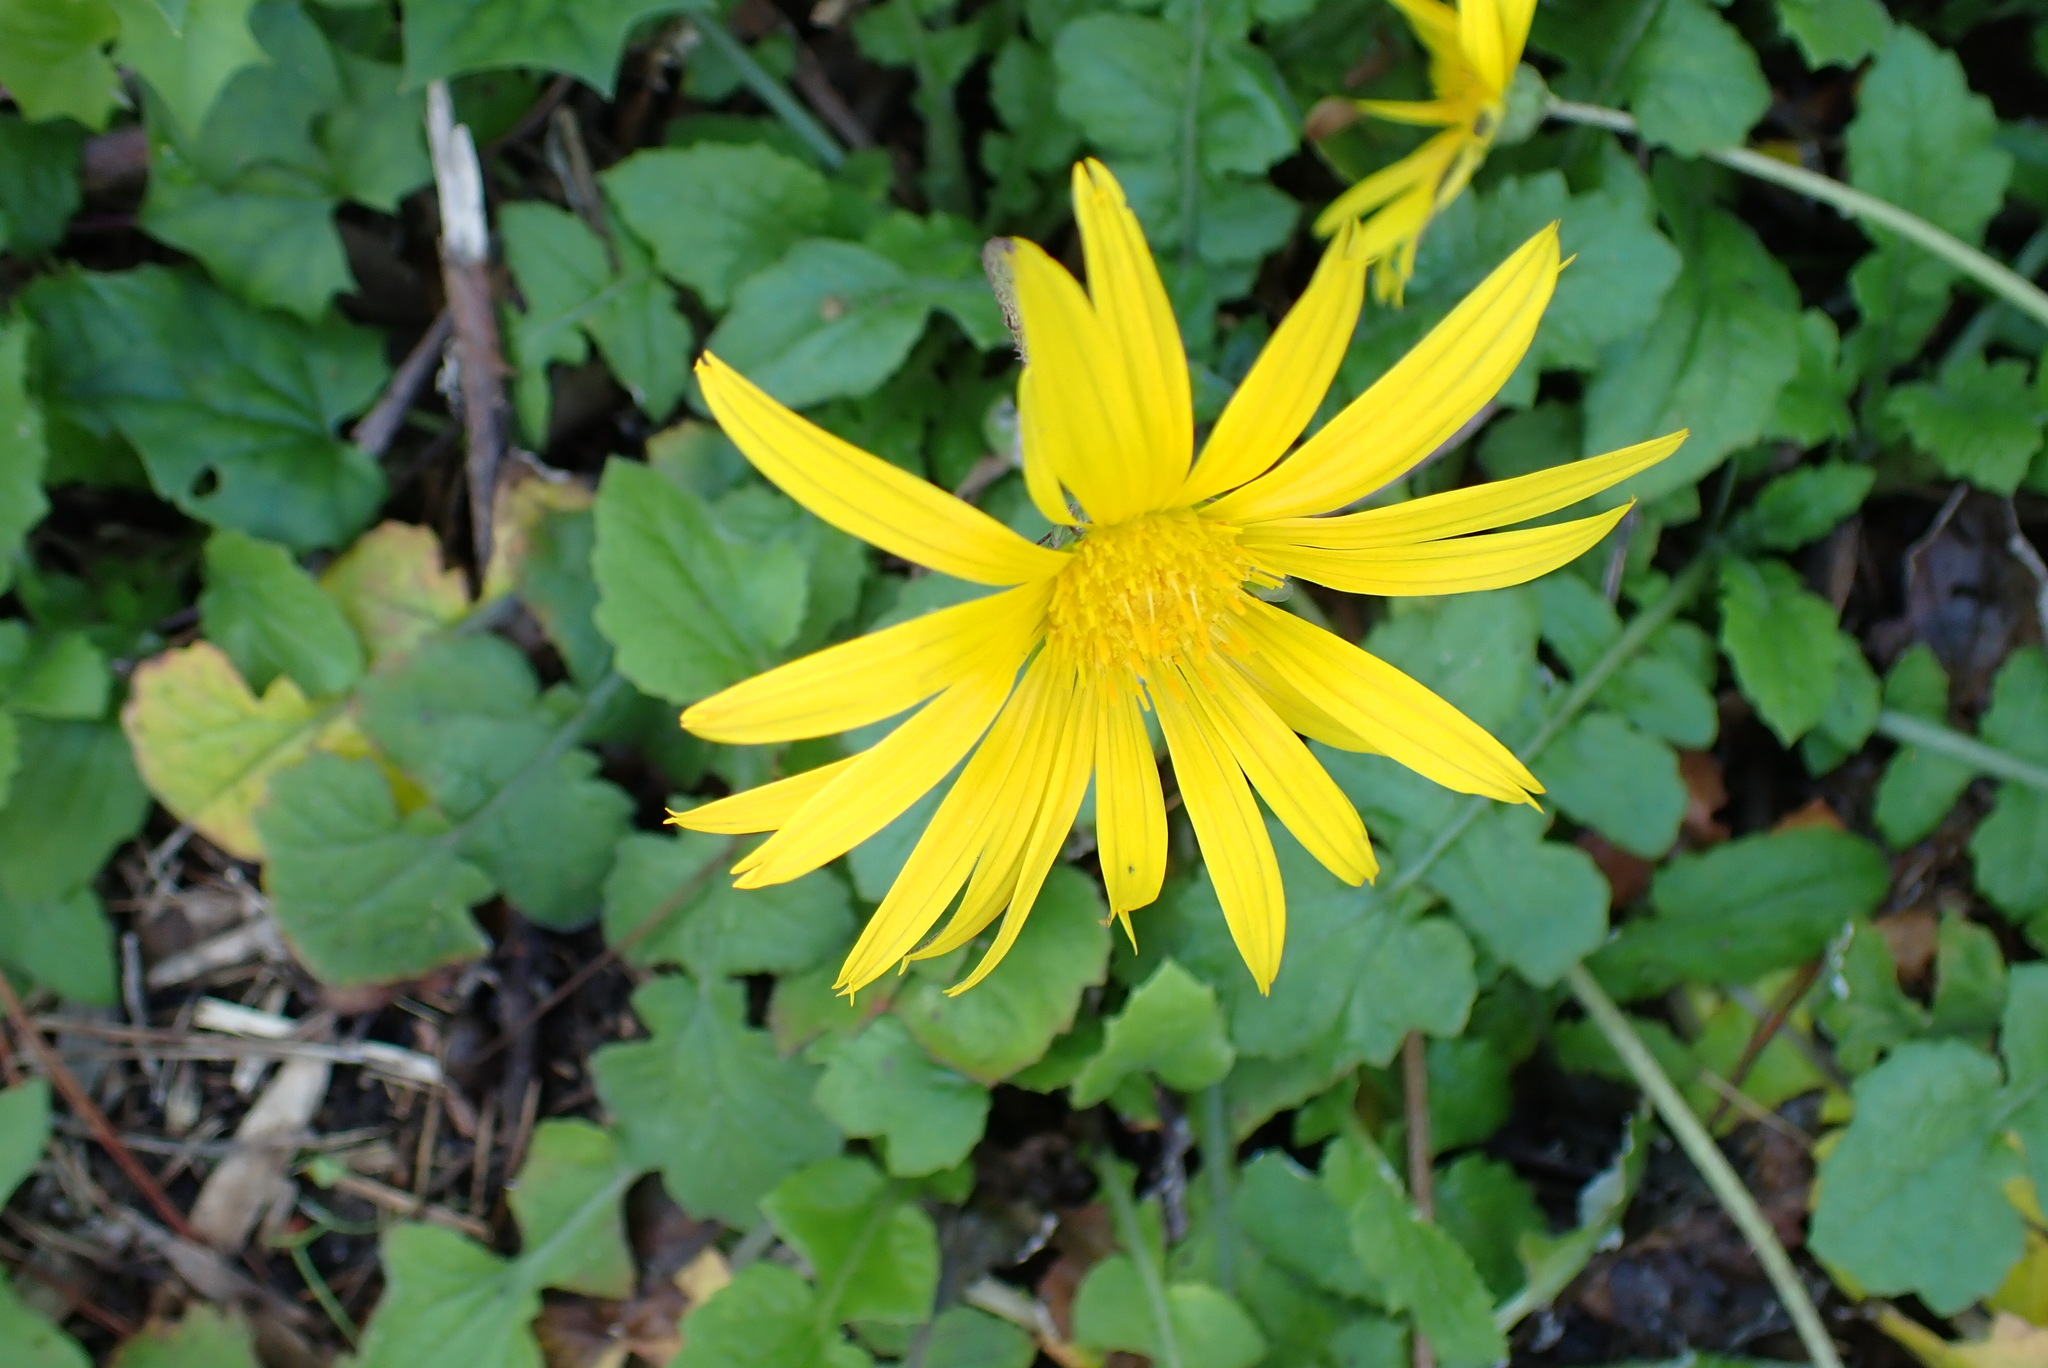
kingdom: Plantae
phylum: Tracheophyta
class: Magnoliopsida
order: Asterales
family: Asteraceae
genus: Arctotheca
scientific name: Arctotheca calendula
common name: Capeweed
